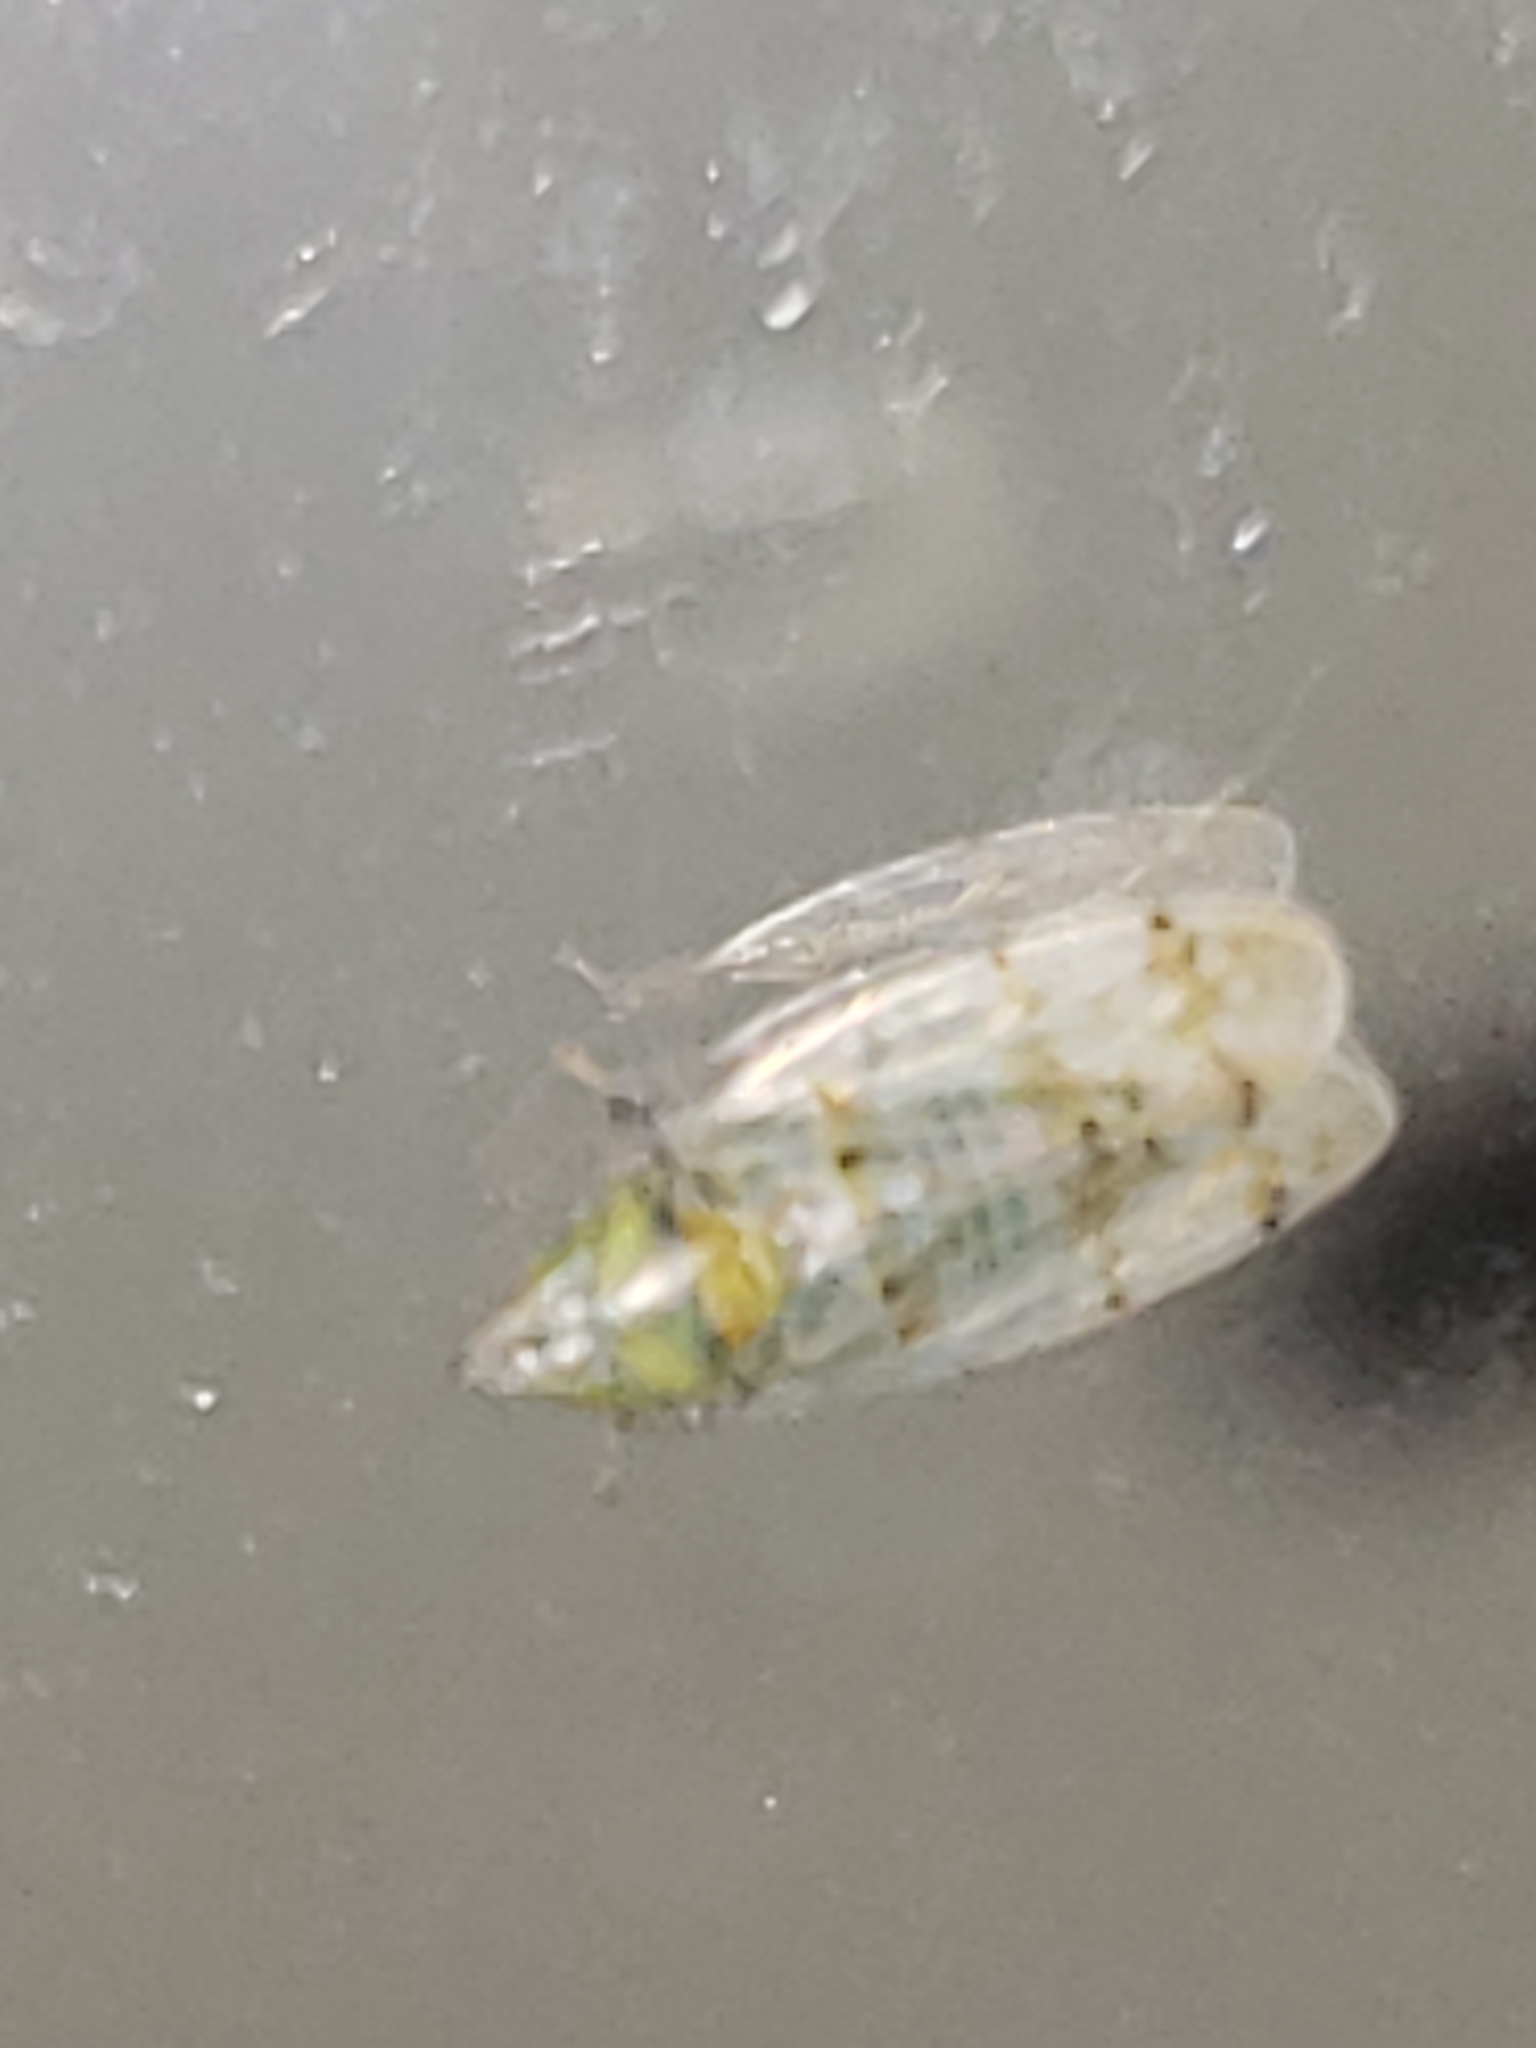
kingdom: Animalia
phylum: Arthropoda
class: Insecta
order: Hemiptera
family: Cicadellidae
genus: Japananus
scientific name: Japananus hyalinus
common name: The japanese maple leafhopper
